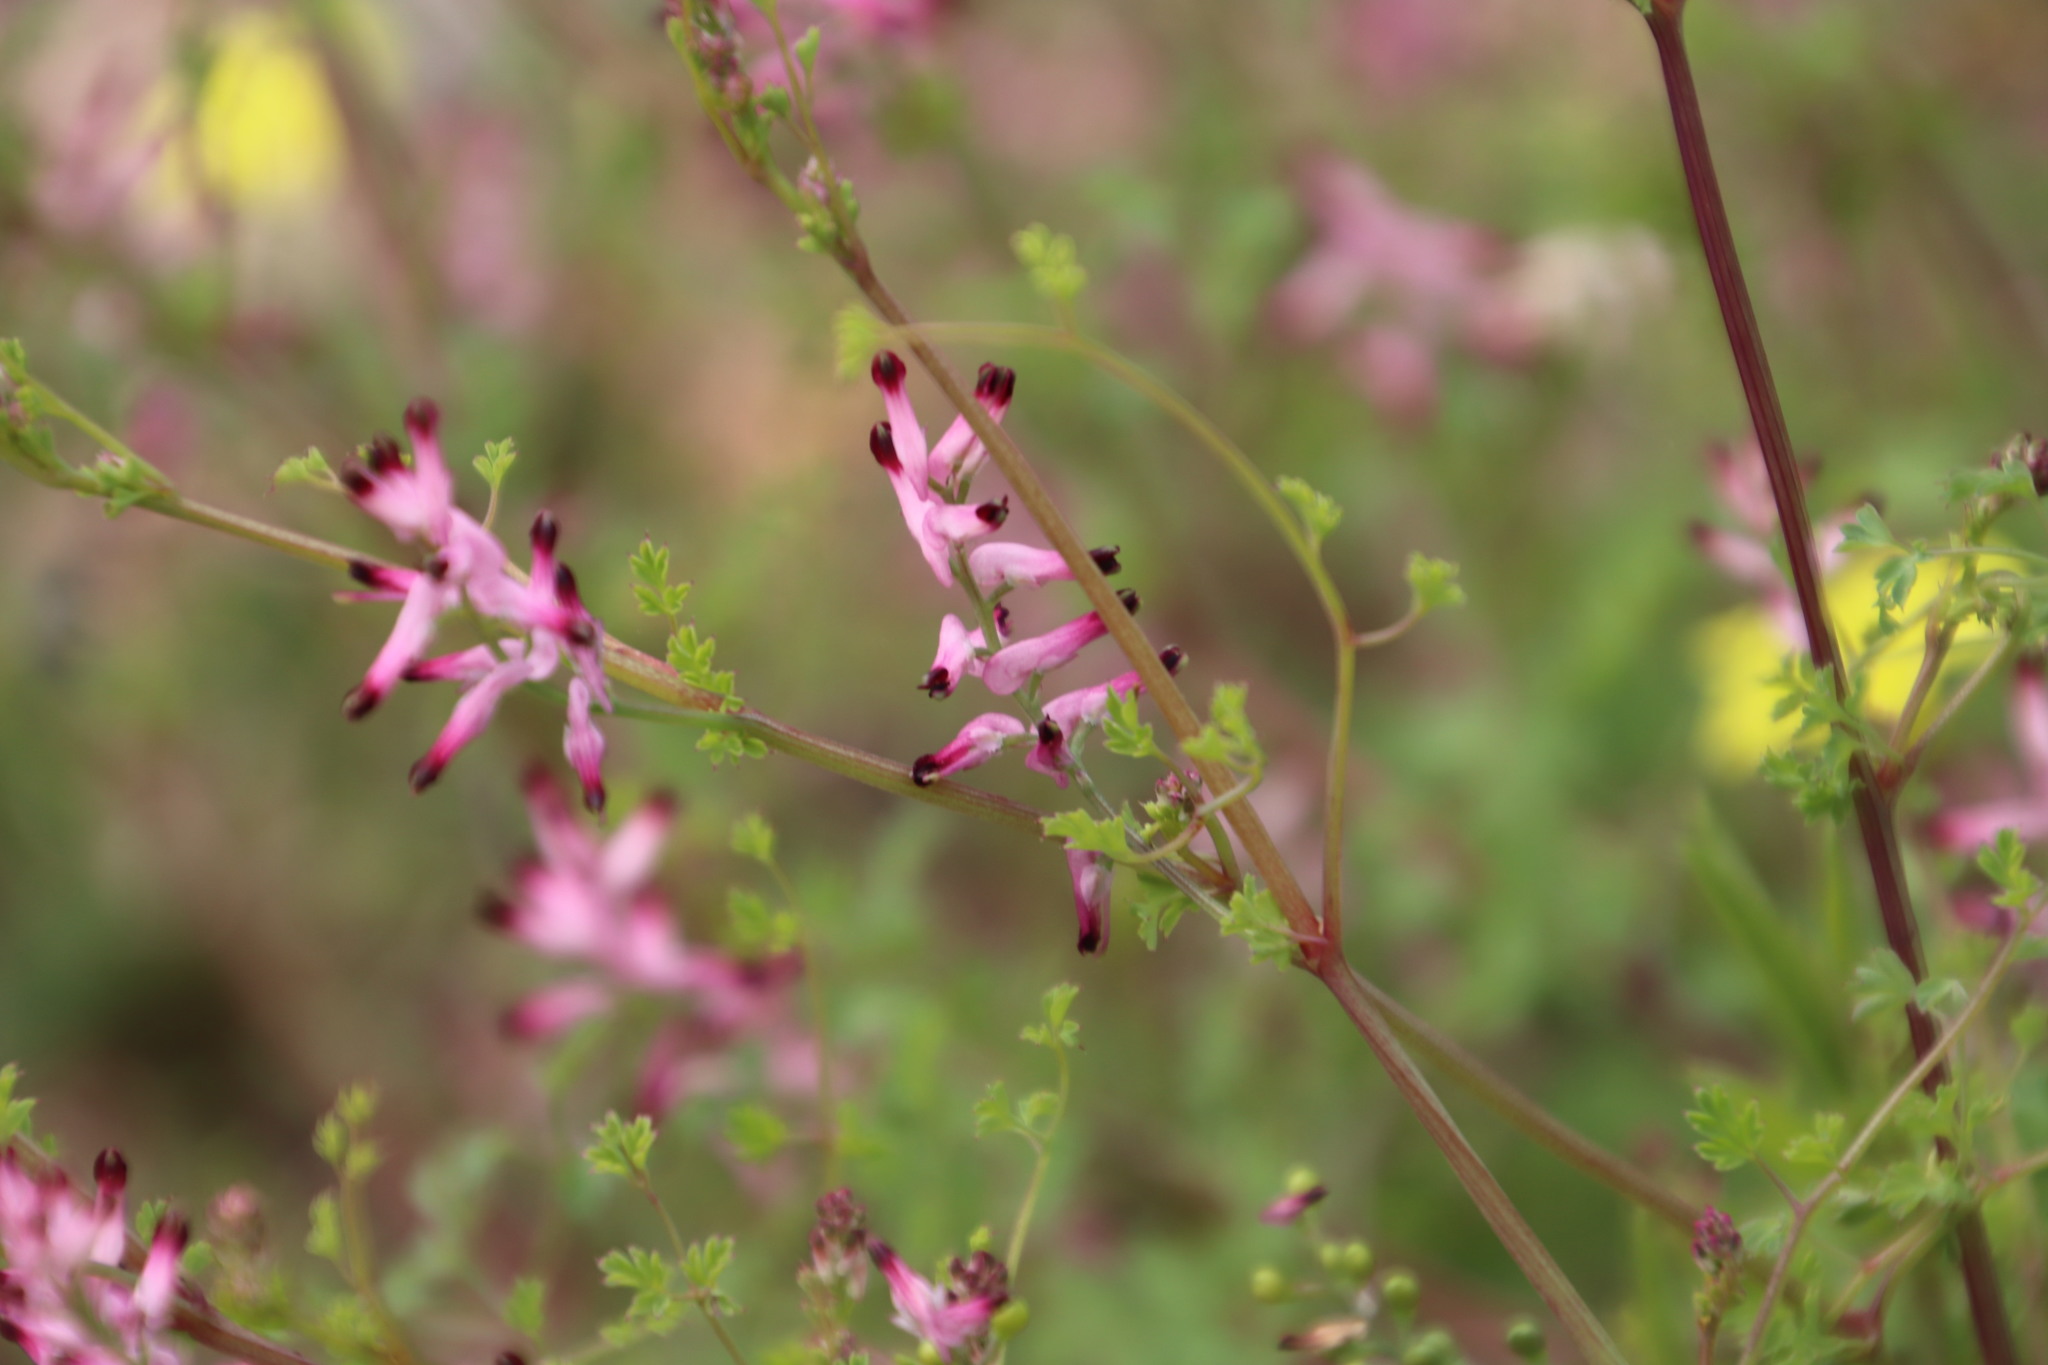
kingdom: Plantae
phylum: Tracheophyta
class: Magnoliopsida
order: Ranunculales
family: Papaveraceae
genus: Fumaria
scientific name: Fumaria muralis
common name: Common ramping-fumitory
